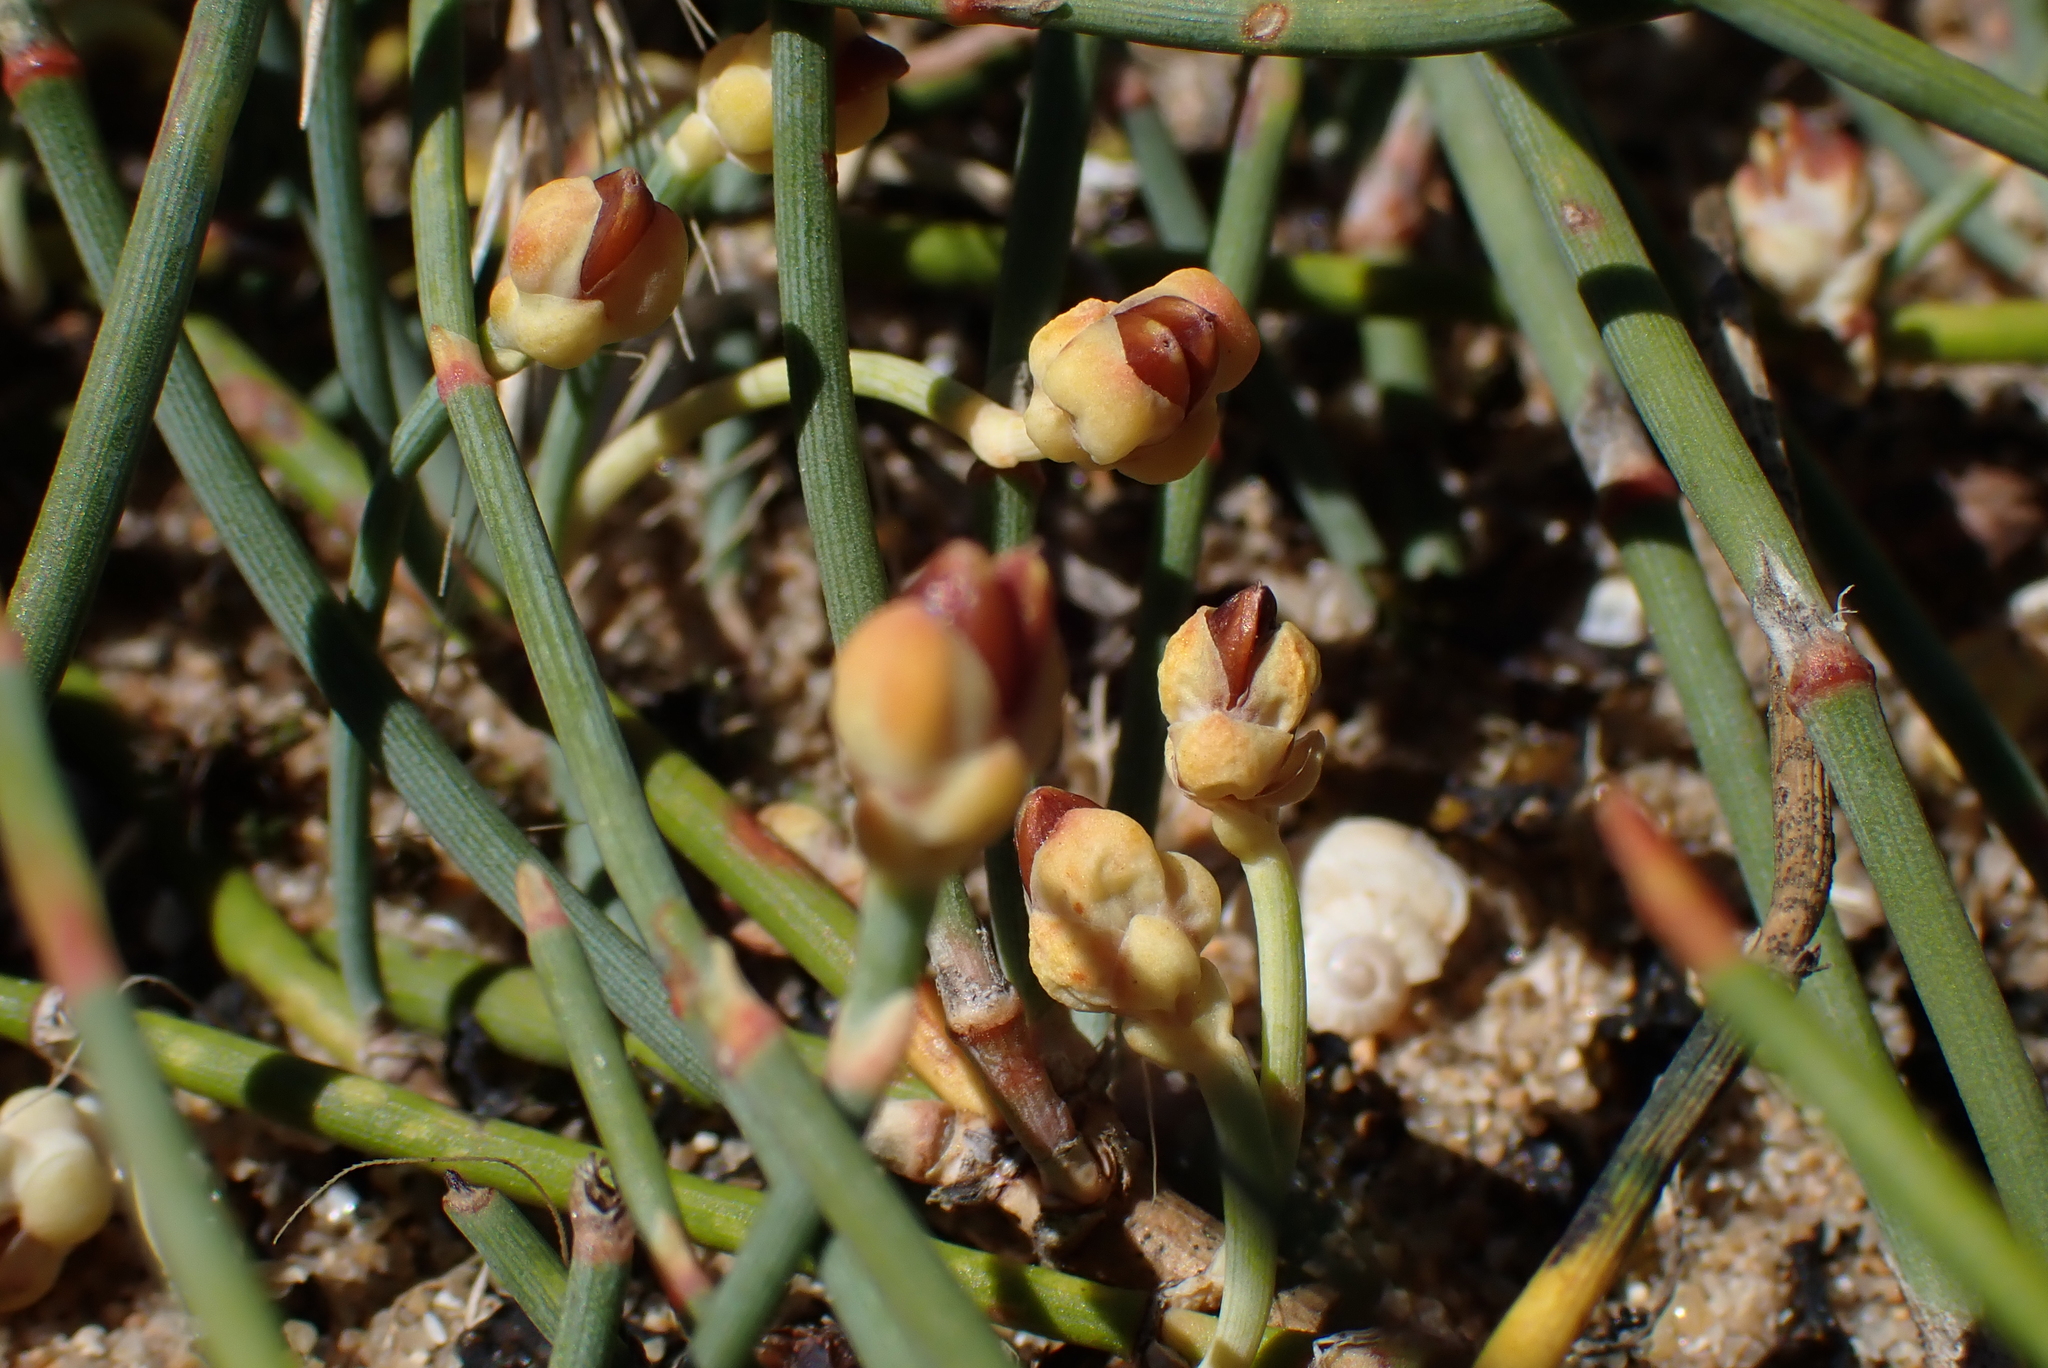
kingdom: Plantae
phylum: Tracheophyta
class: Gnetopsida
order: Ephedrales
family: Ephedraceae
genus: Ephedra
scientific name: Ephedra distachya
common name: Sea grape
